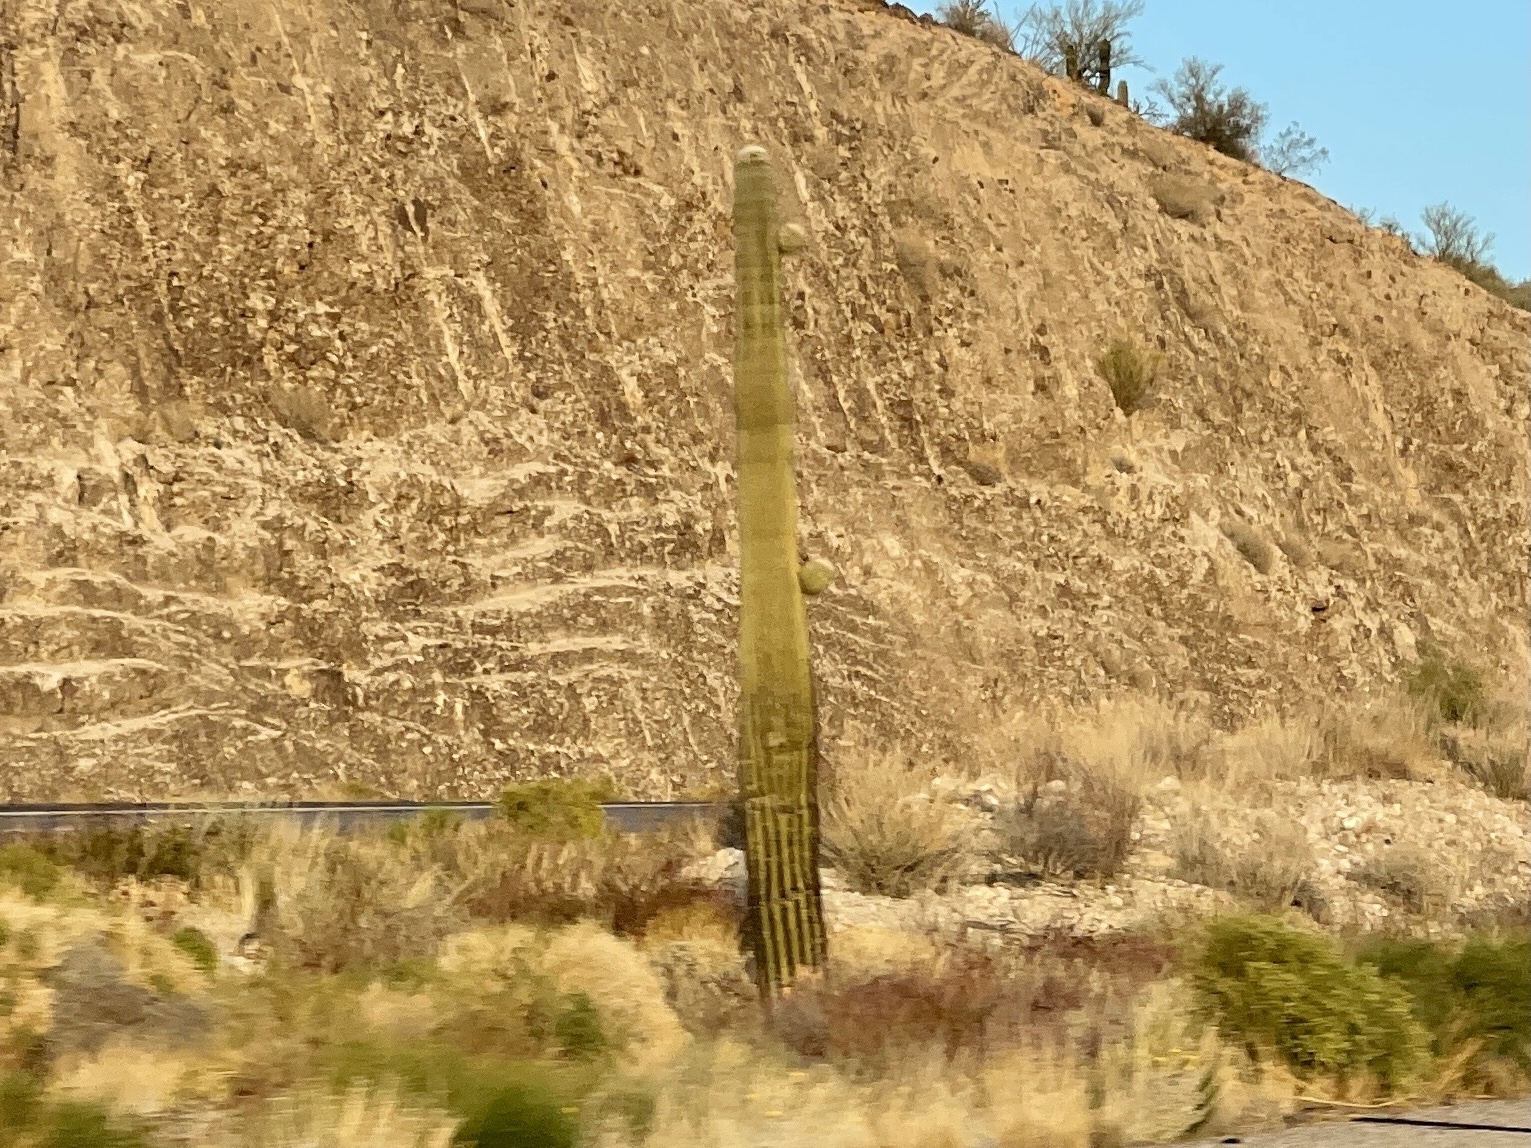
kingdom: Plantae
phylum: Tracheophyta
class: Magnoliopsida
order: Caryophyllales
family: Cactaceae
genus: Carnegiea
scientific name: Carnegiea gigantea
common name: Saguaro
